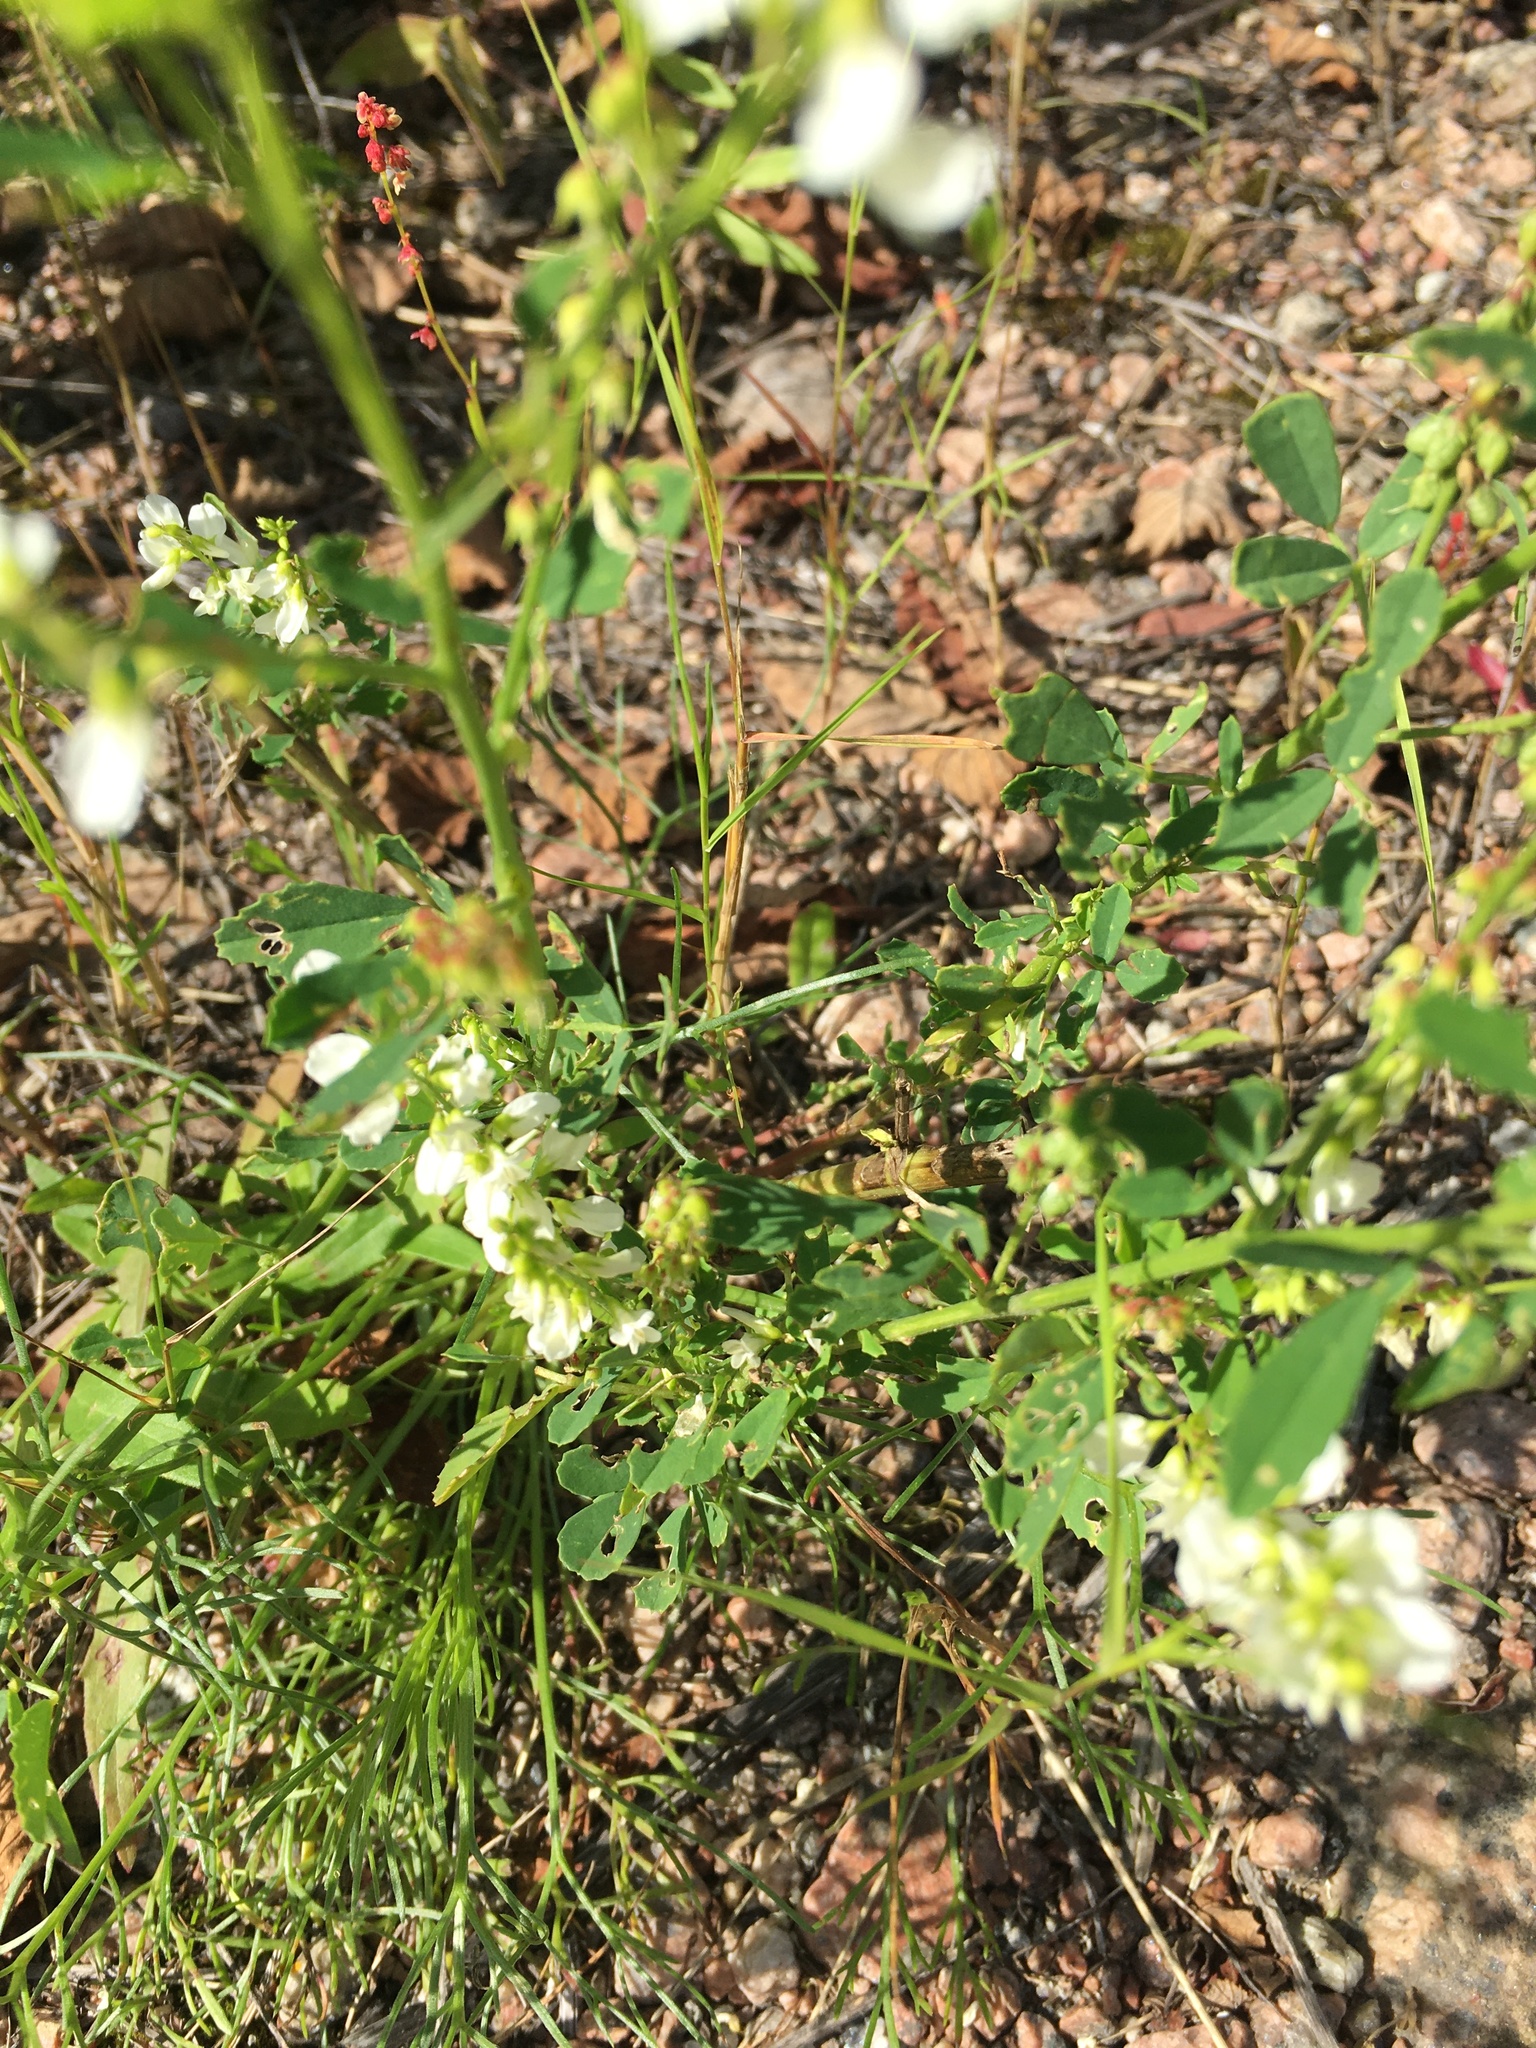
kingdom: Plantae
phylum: Tracheophyta
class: Magnoliopsida
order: Fabales
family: Fabaceae
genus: Melilotus
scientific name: Melilotus albus
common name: White melilot
